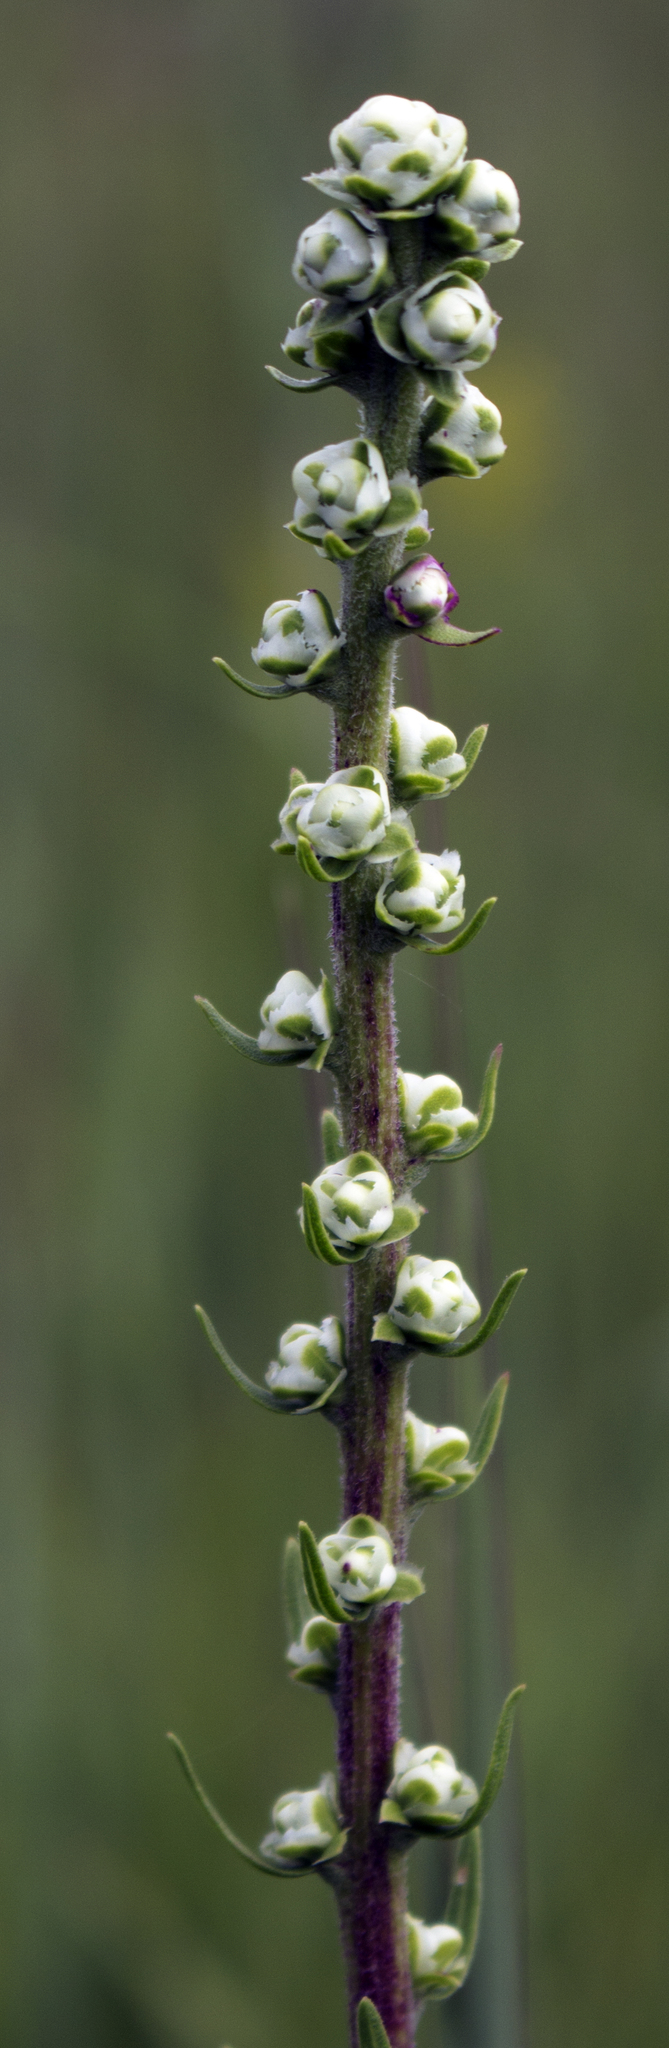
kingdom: Plantae
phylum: Tracheophyta
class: Magnoliopsida
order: Asterales
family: Asteraceae
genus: Liatris
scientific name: Liatris aspera
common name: Lacerate blazing-star
